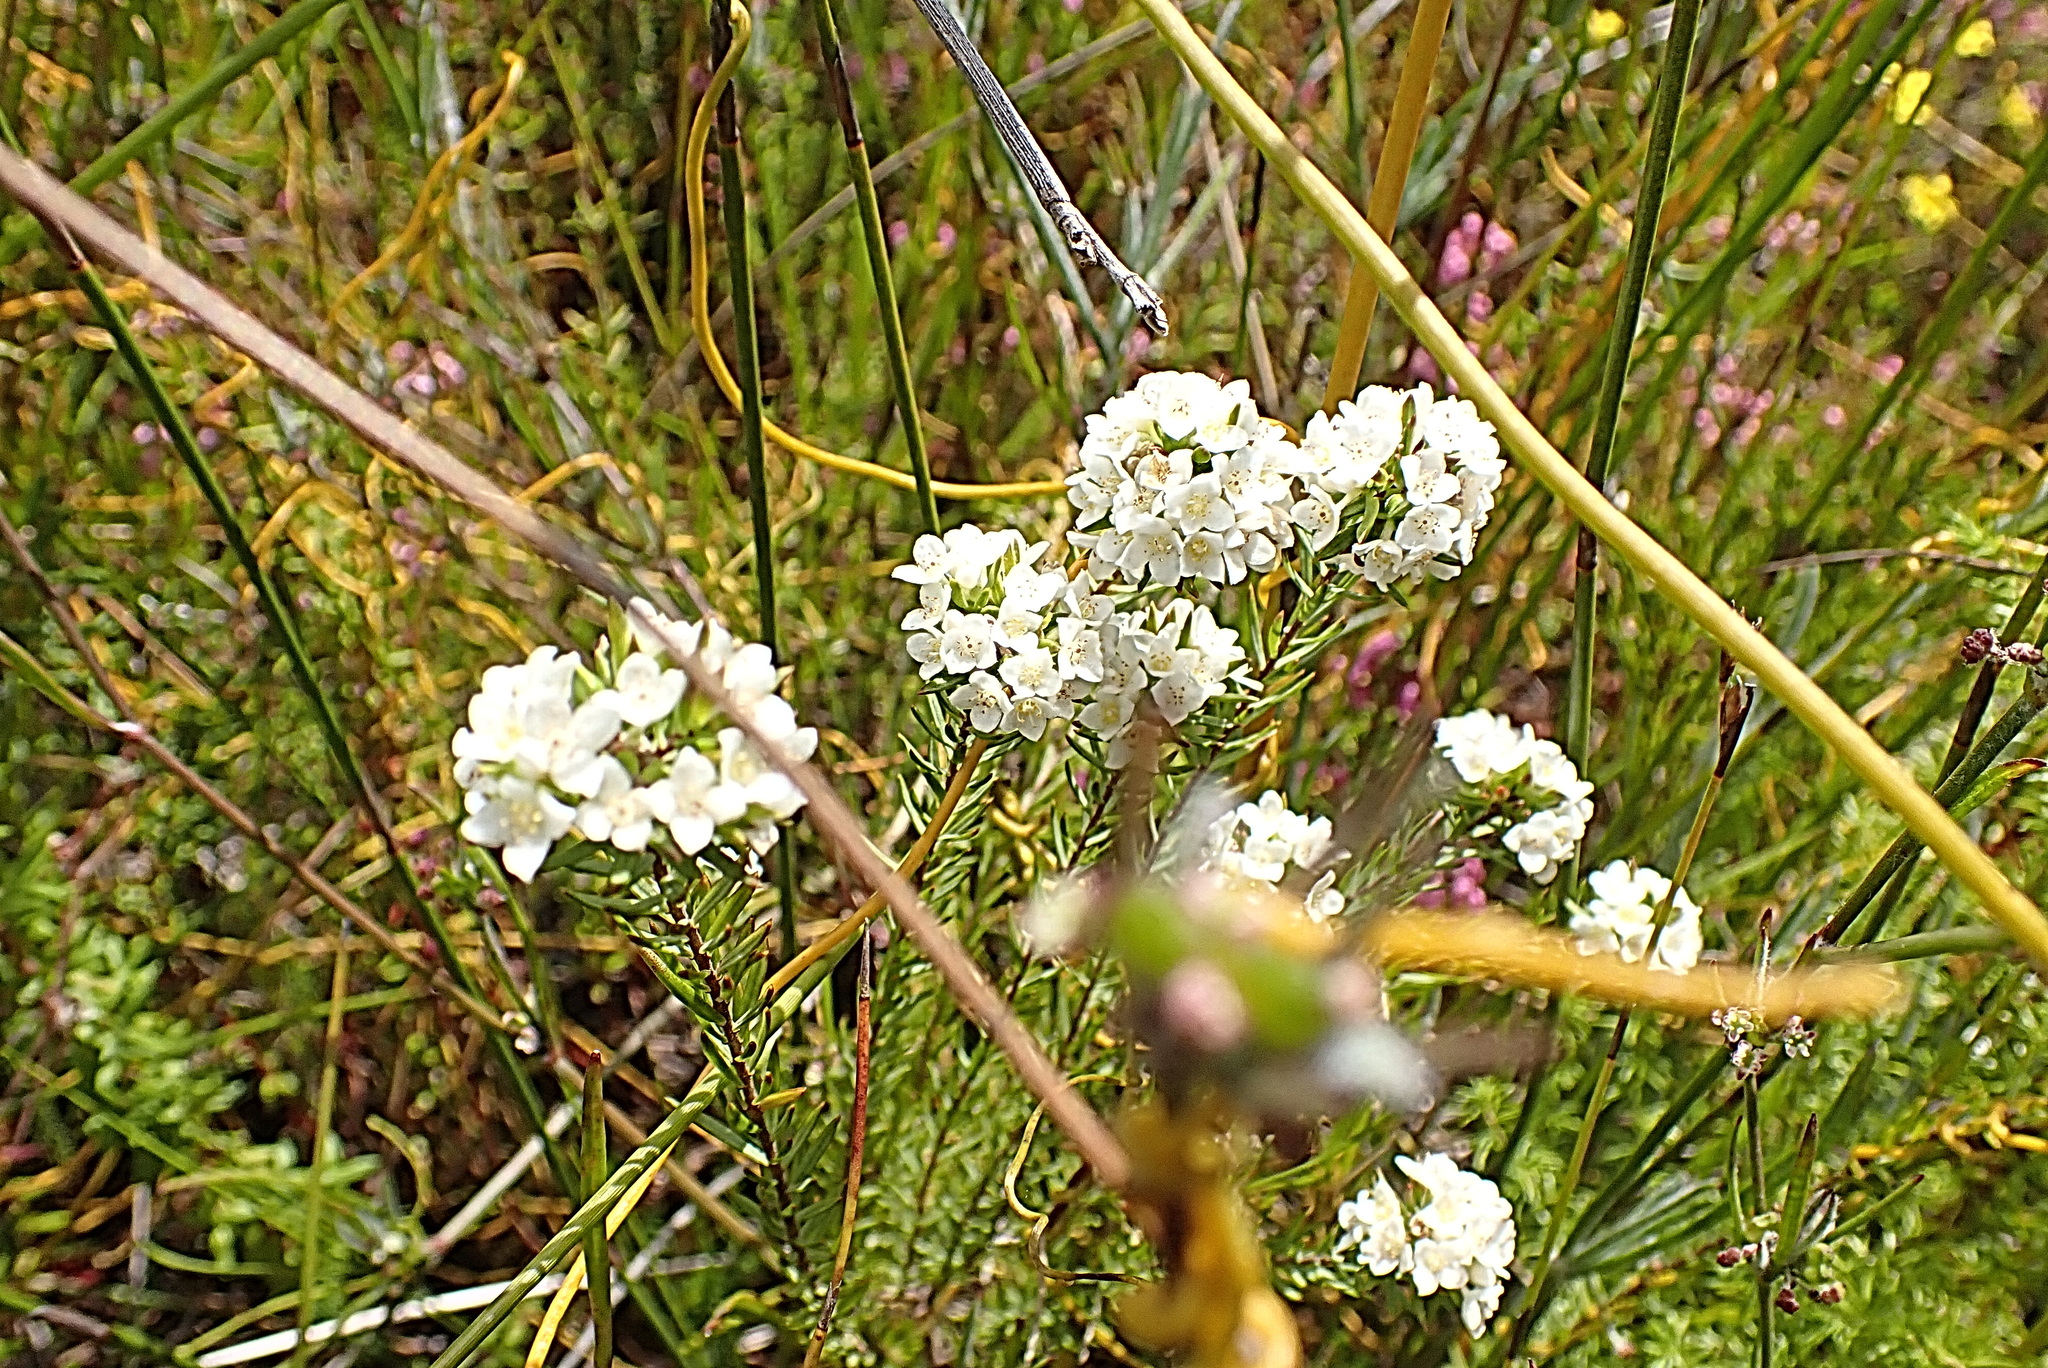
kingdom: Plantae
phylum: Tracheophyta
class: Magnoliopsida
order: Malvales
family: Thymelaeaceae
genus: Lachnaea
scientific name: Lachnaea diosmoides
